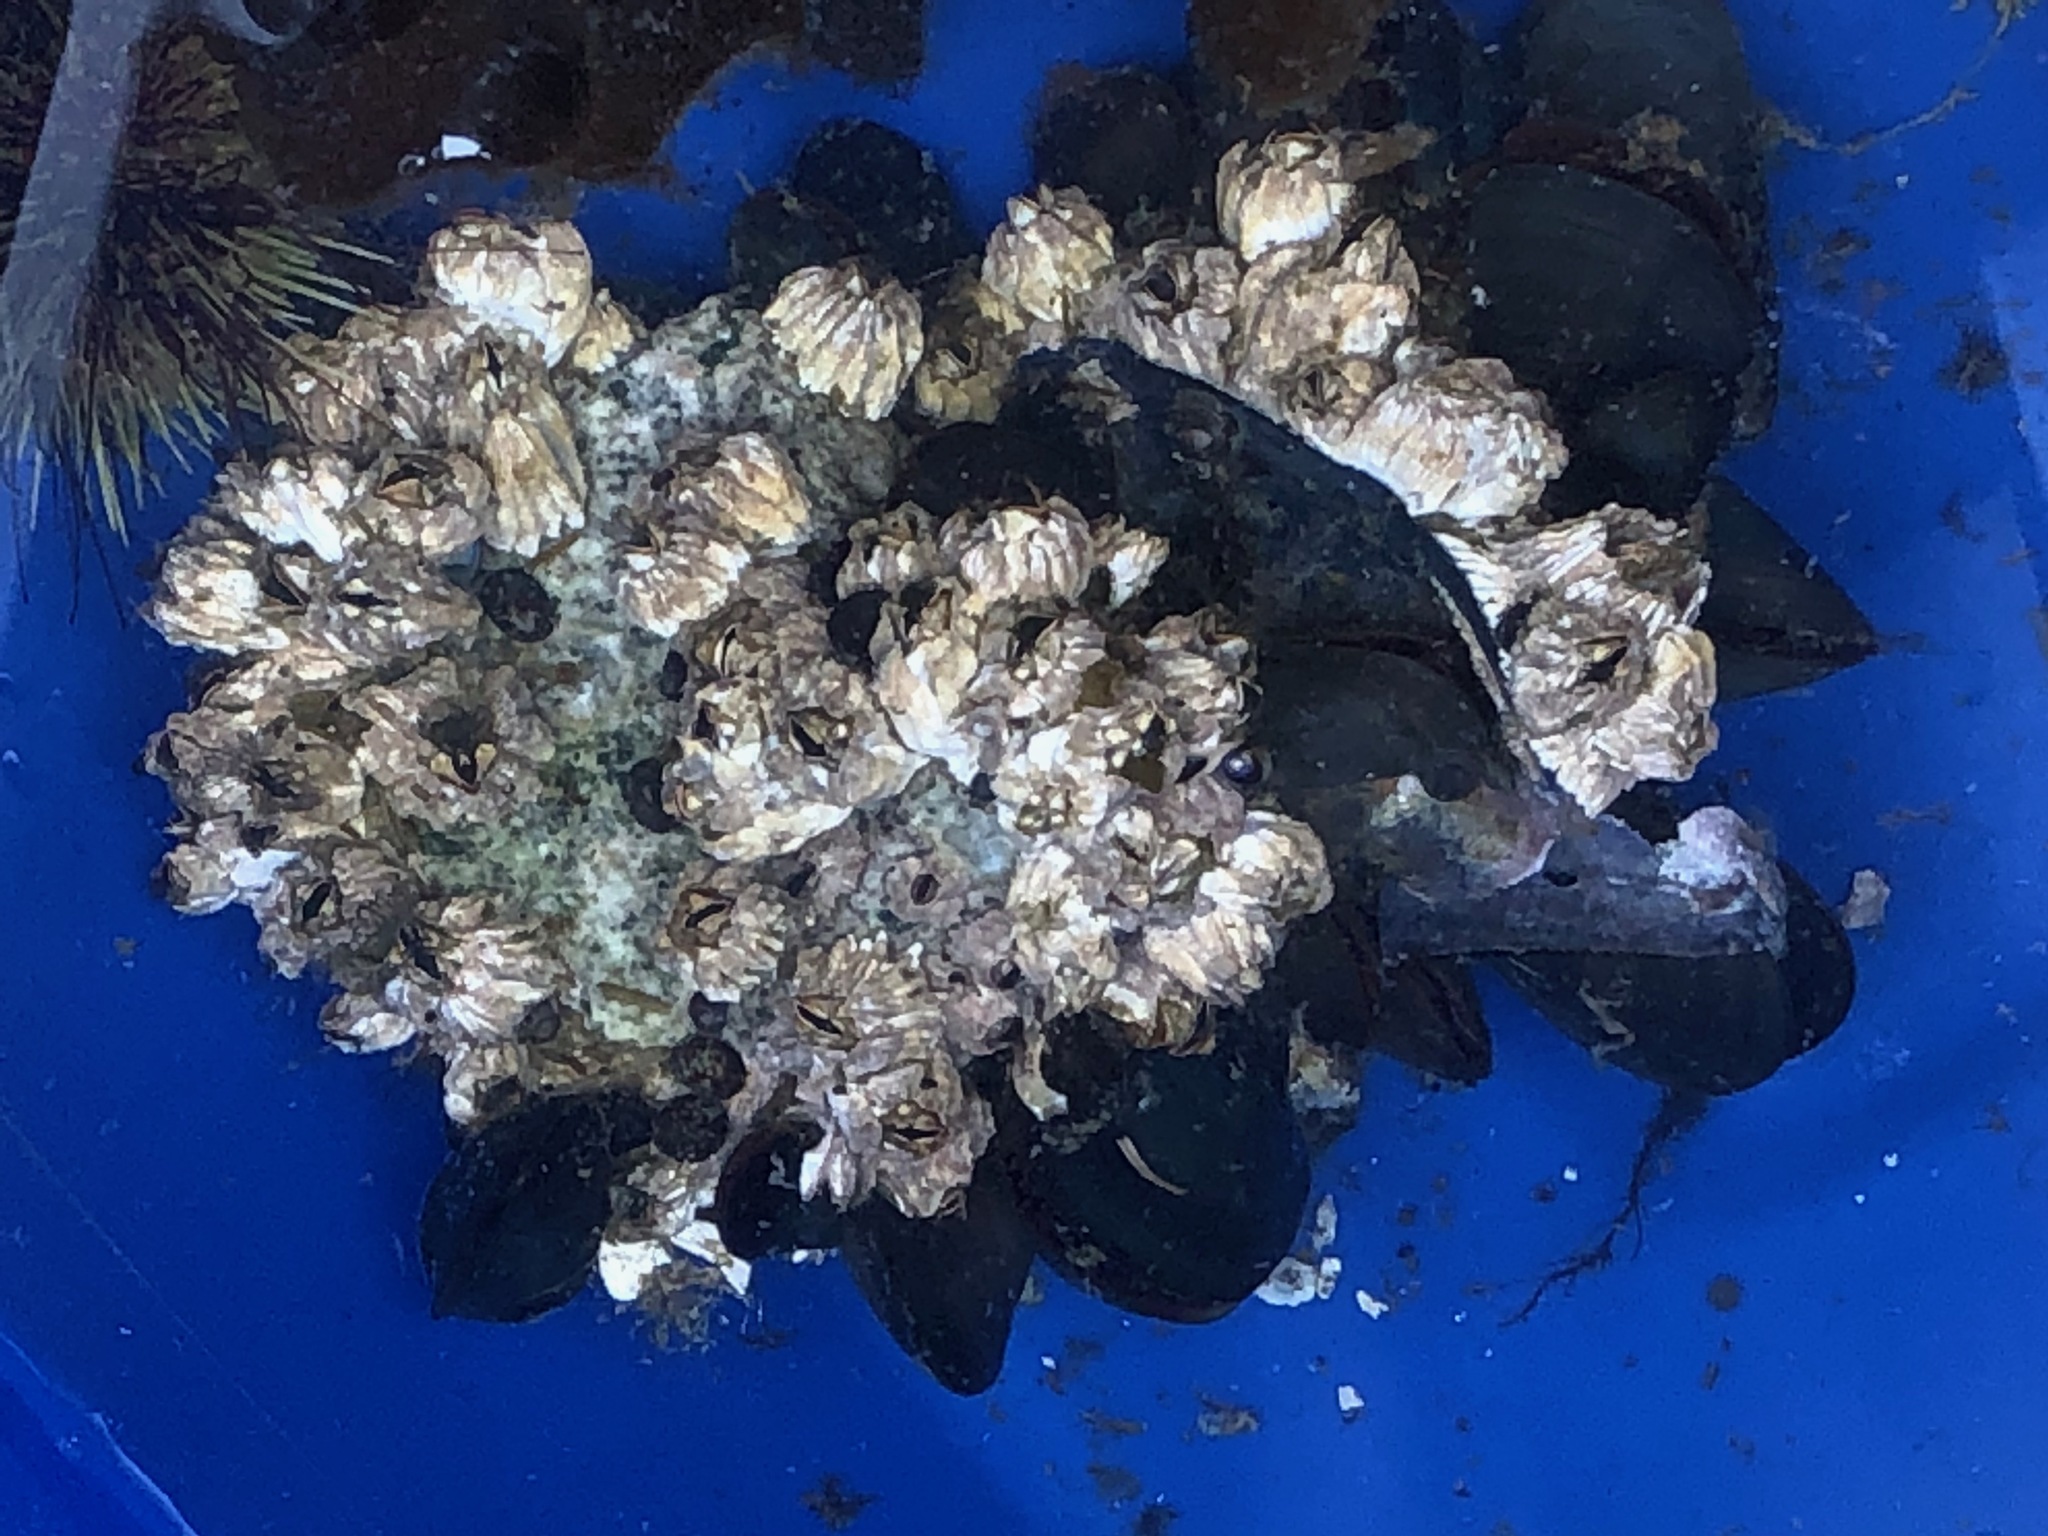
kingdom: Animalia
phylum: Arthropoda
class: Maxillopoda
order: Sessilia
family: Balanidae
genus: Balanus
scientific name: Balanus glandula
